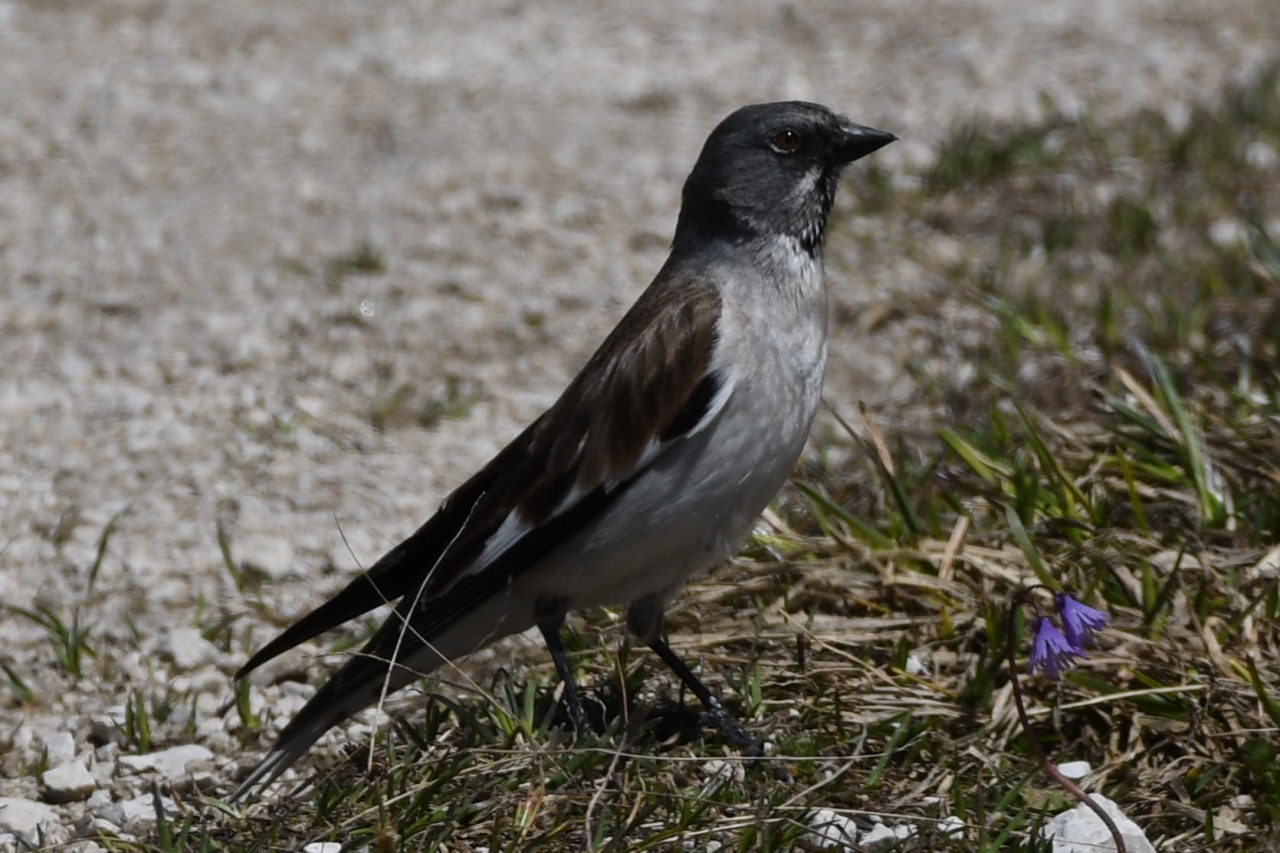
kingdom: Animalia
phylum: Chordata
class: Aves
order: Passeriformes
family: Passeridae
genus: Montifringilla
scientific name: Montifringilla nivalis
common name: White-winged snowfinch
